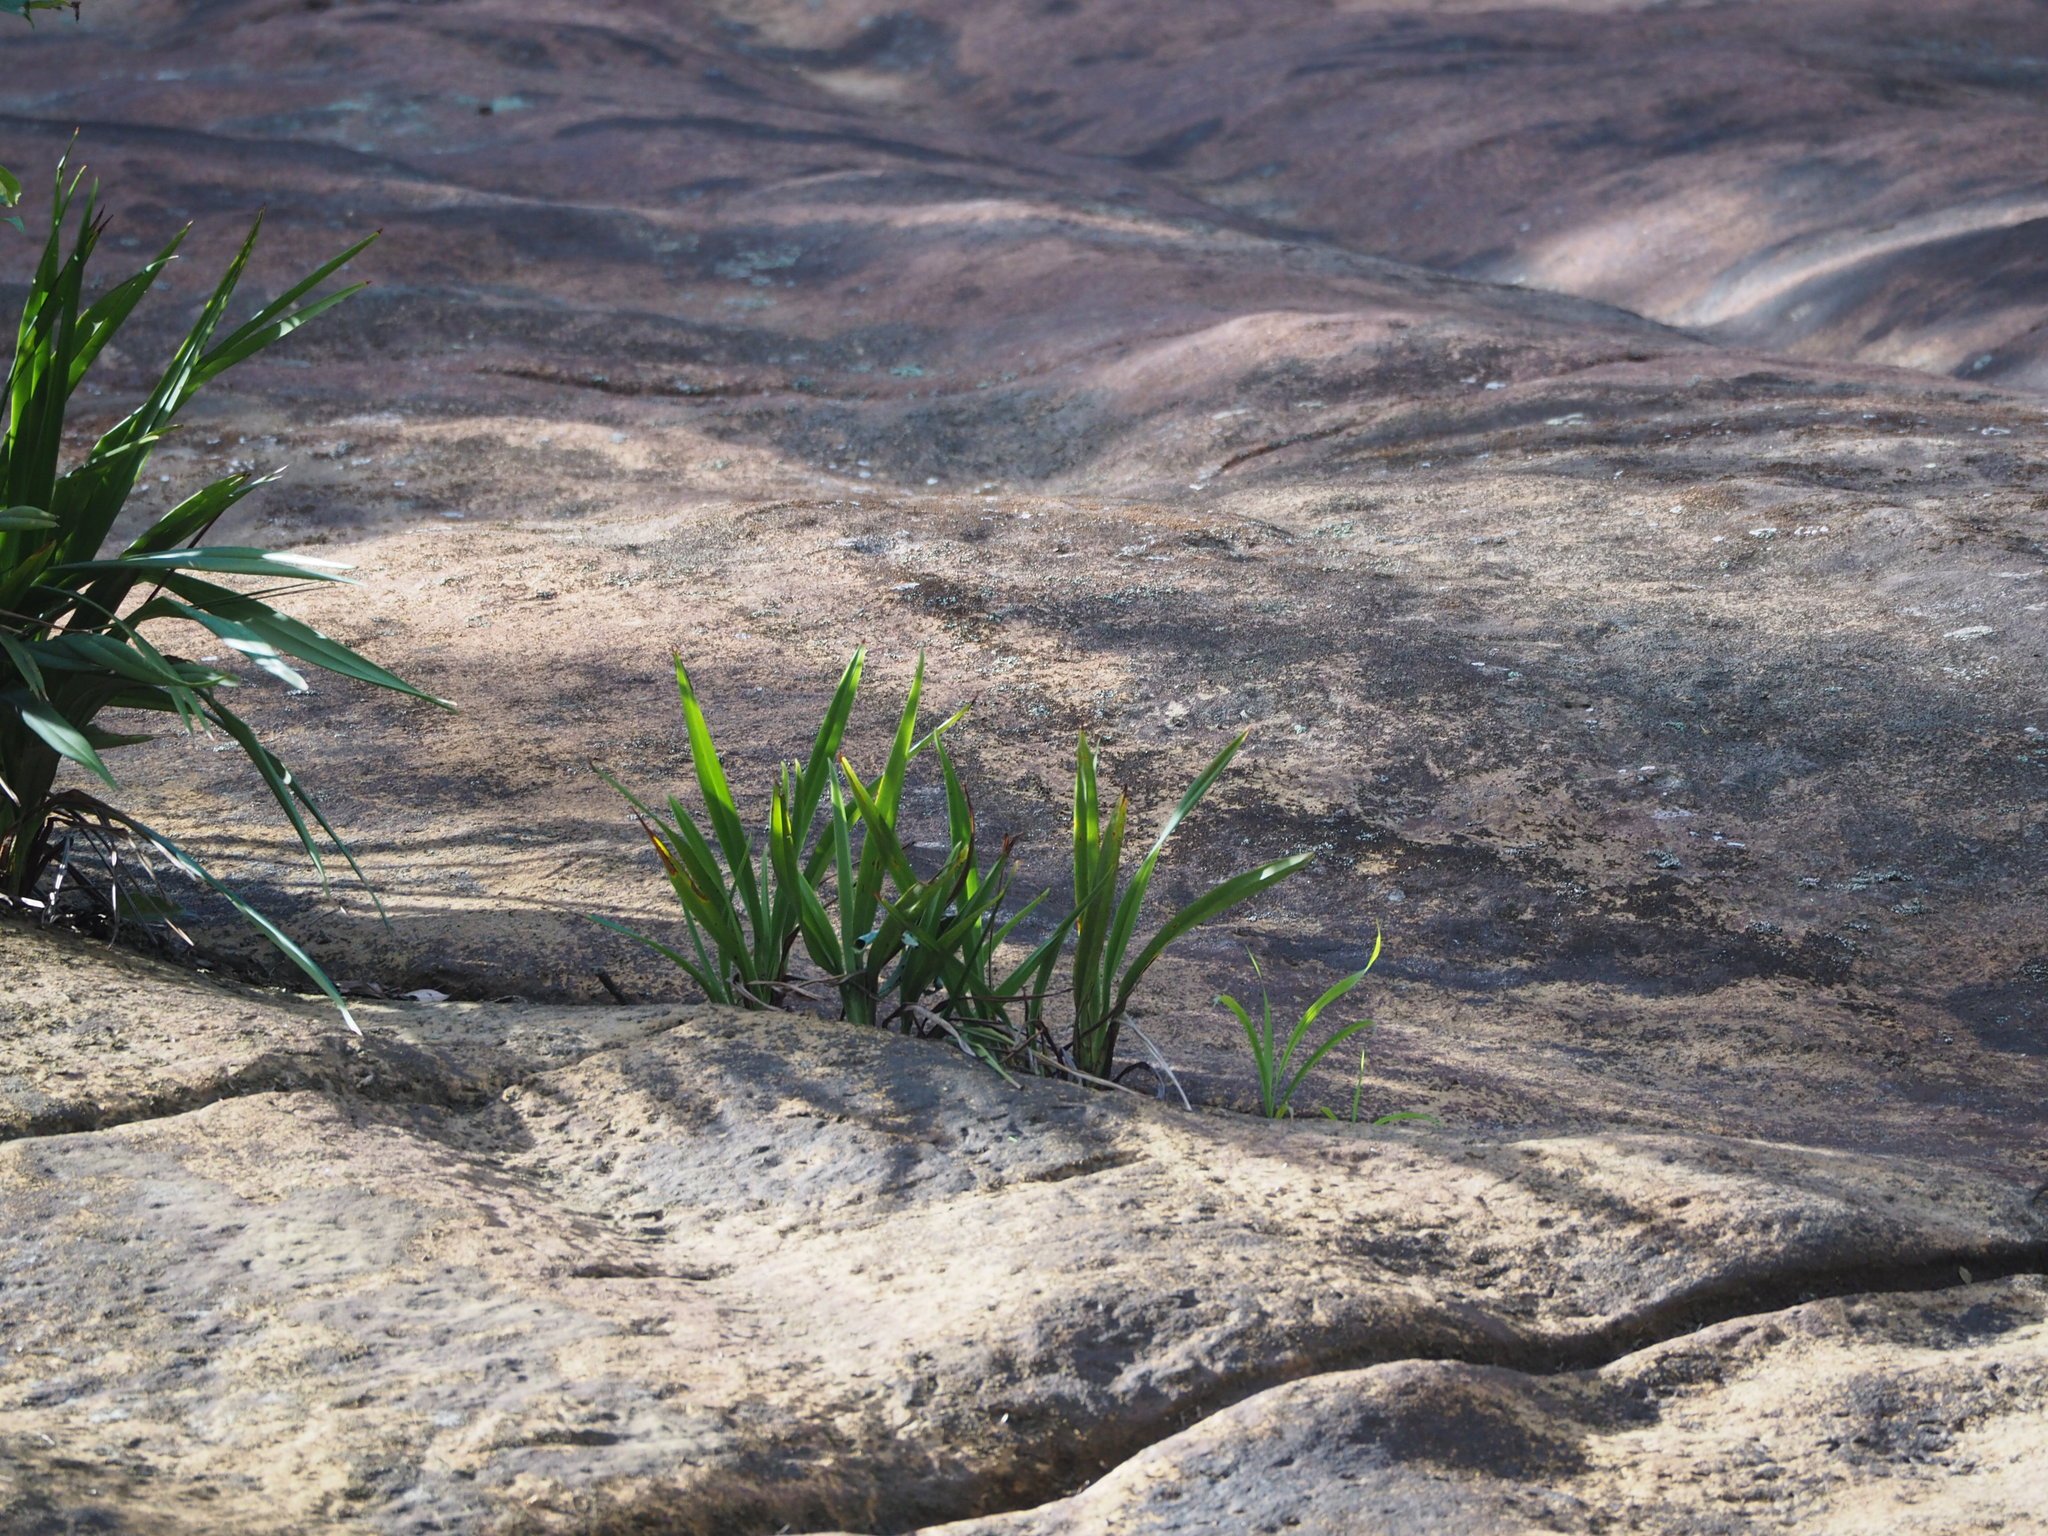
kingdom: Plantae
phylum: Tracheophyta
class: Liliopsida
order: Asparagales
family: Asphodelaceae
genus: Dianella
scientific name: Dianella ensifolia
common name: New zealand lilyplant
